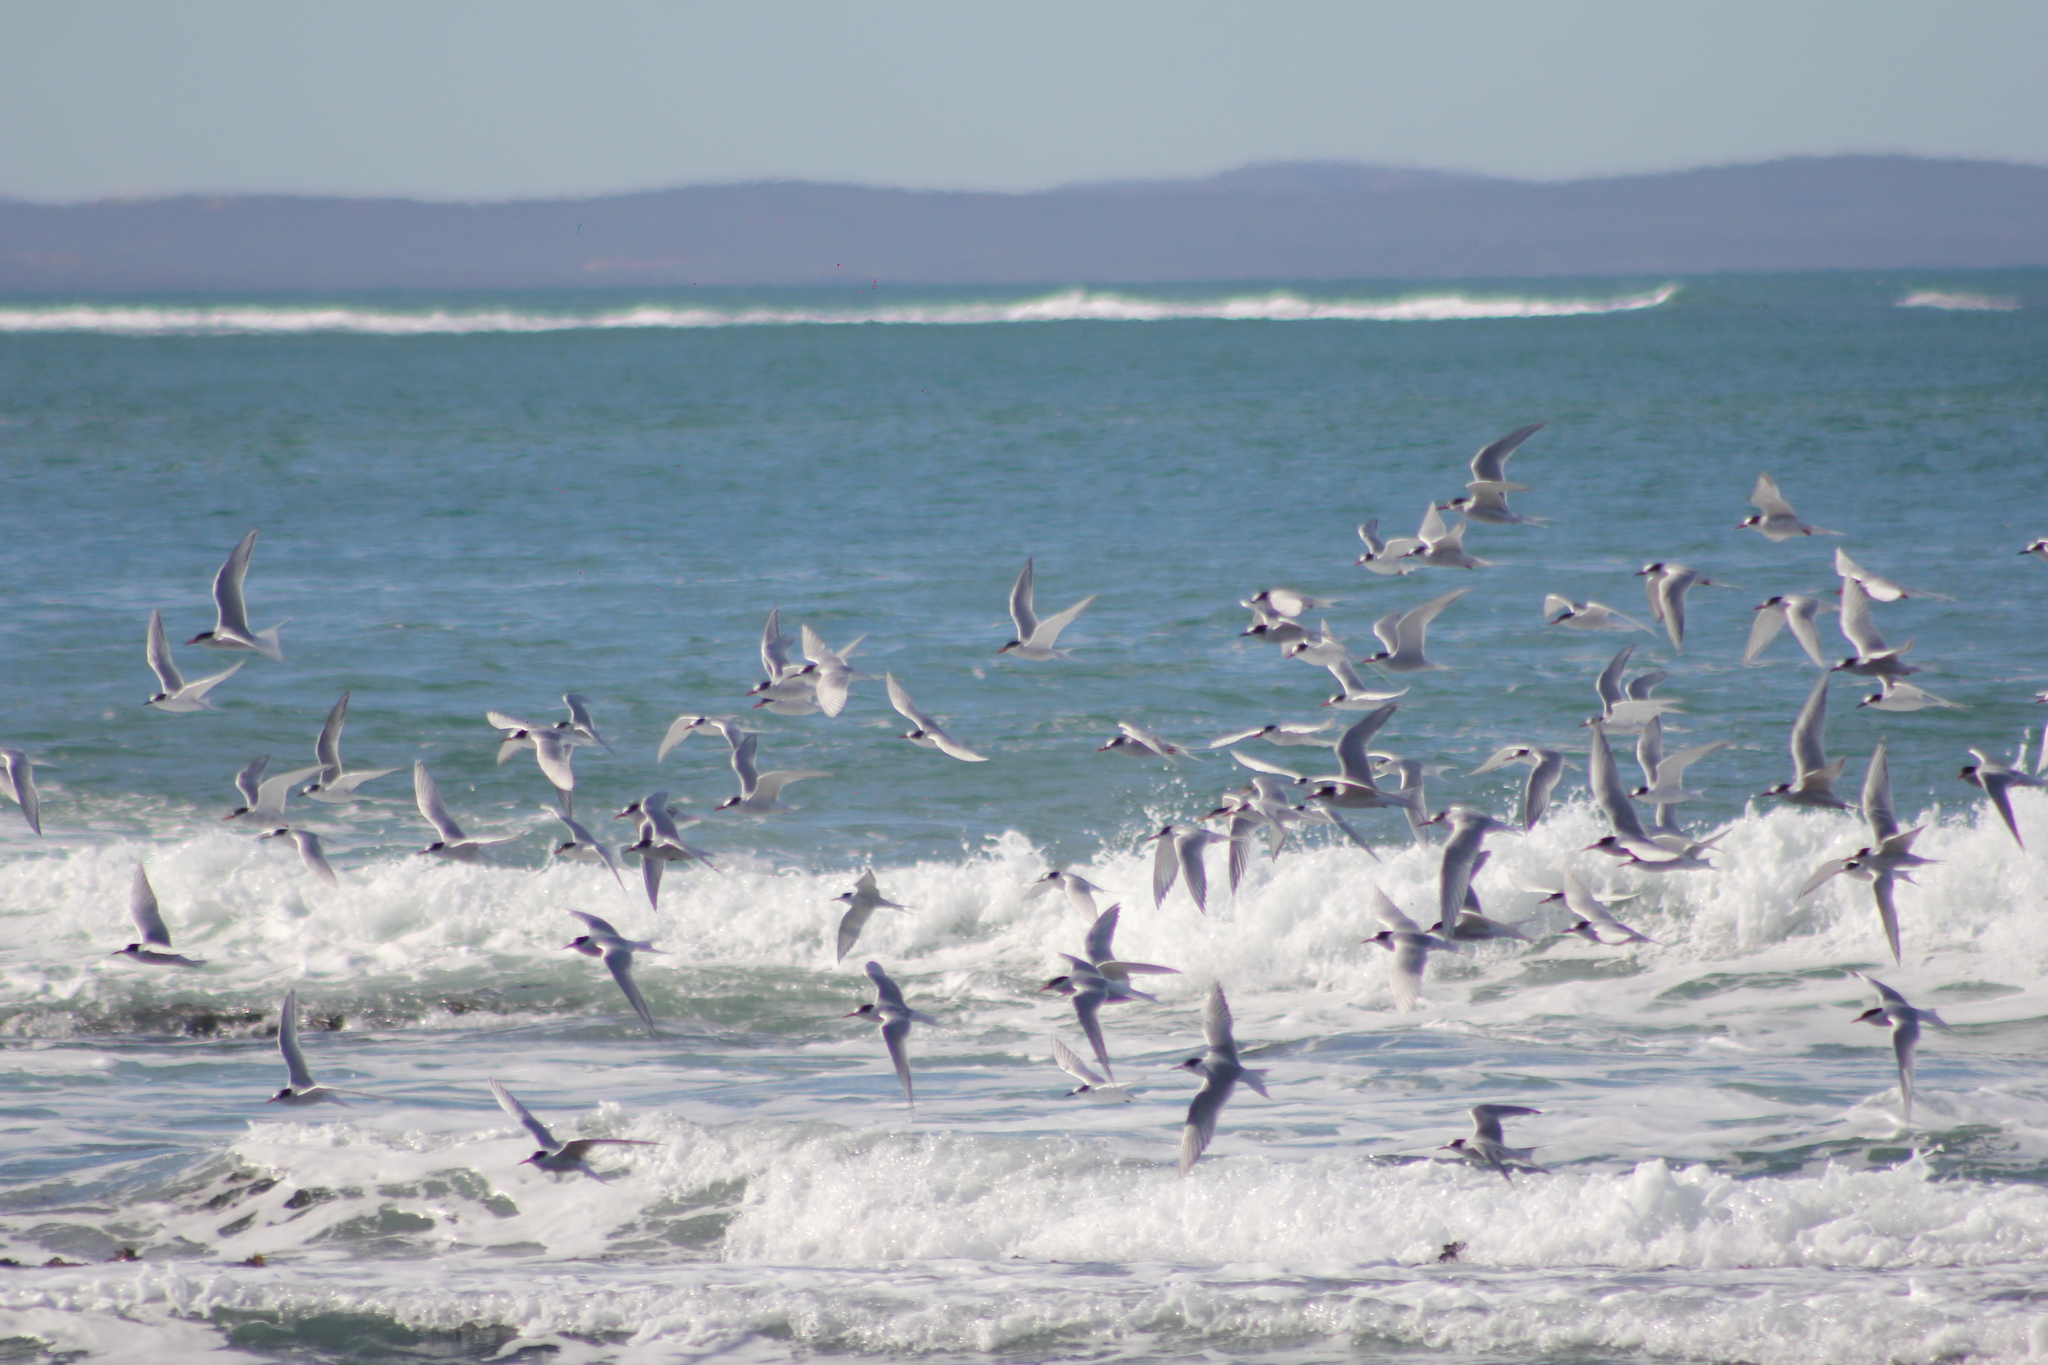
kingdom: Animalia
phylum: Chordata
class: Aves
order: Charadriiformes
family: Laridae
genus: Sterna
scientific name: Sterna hirundinacea
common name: South american tern
